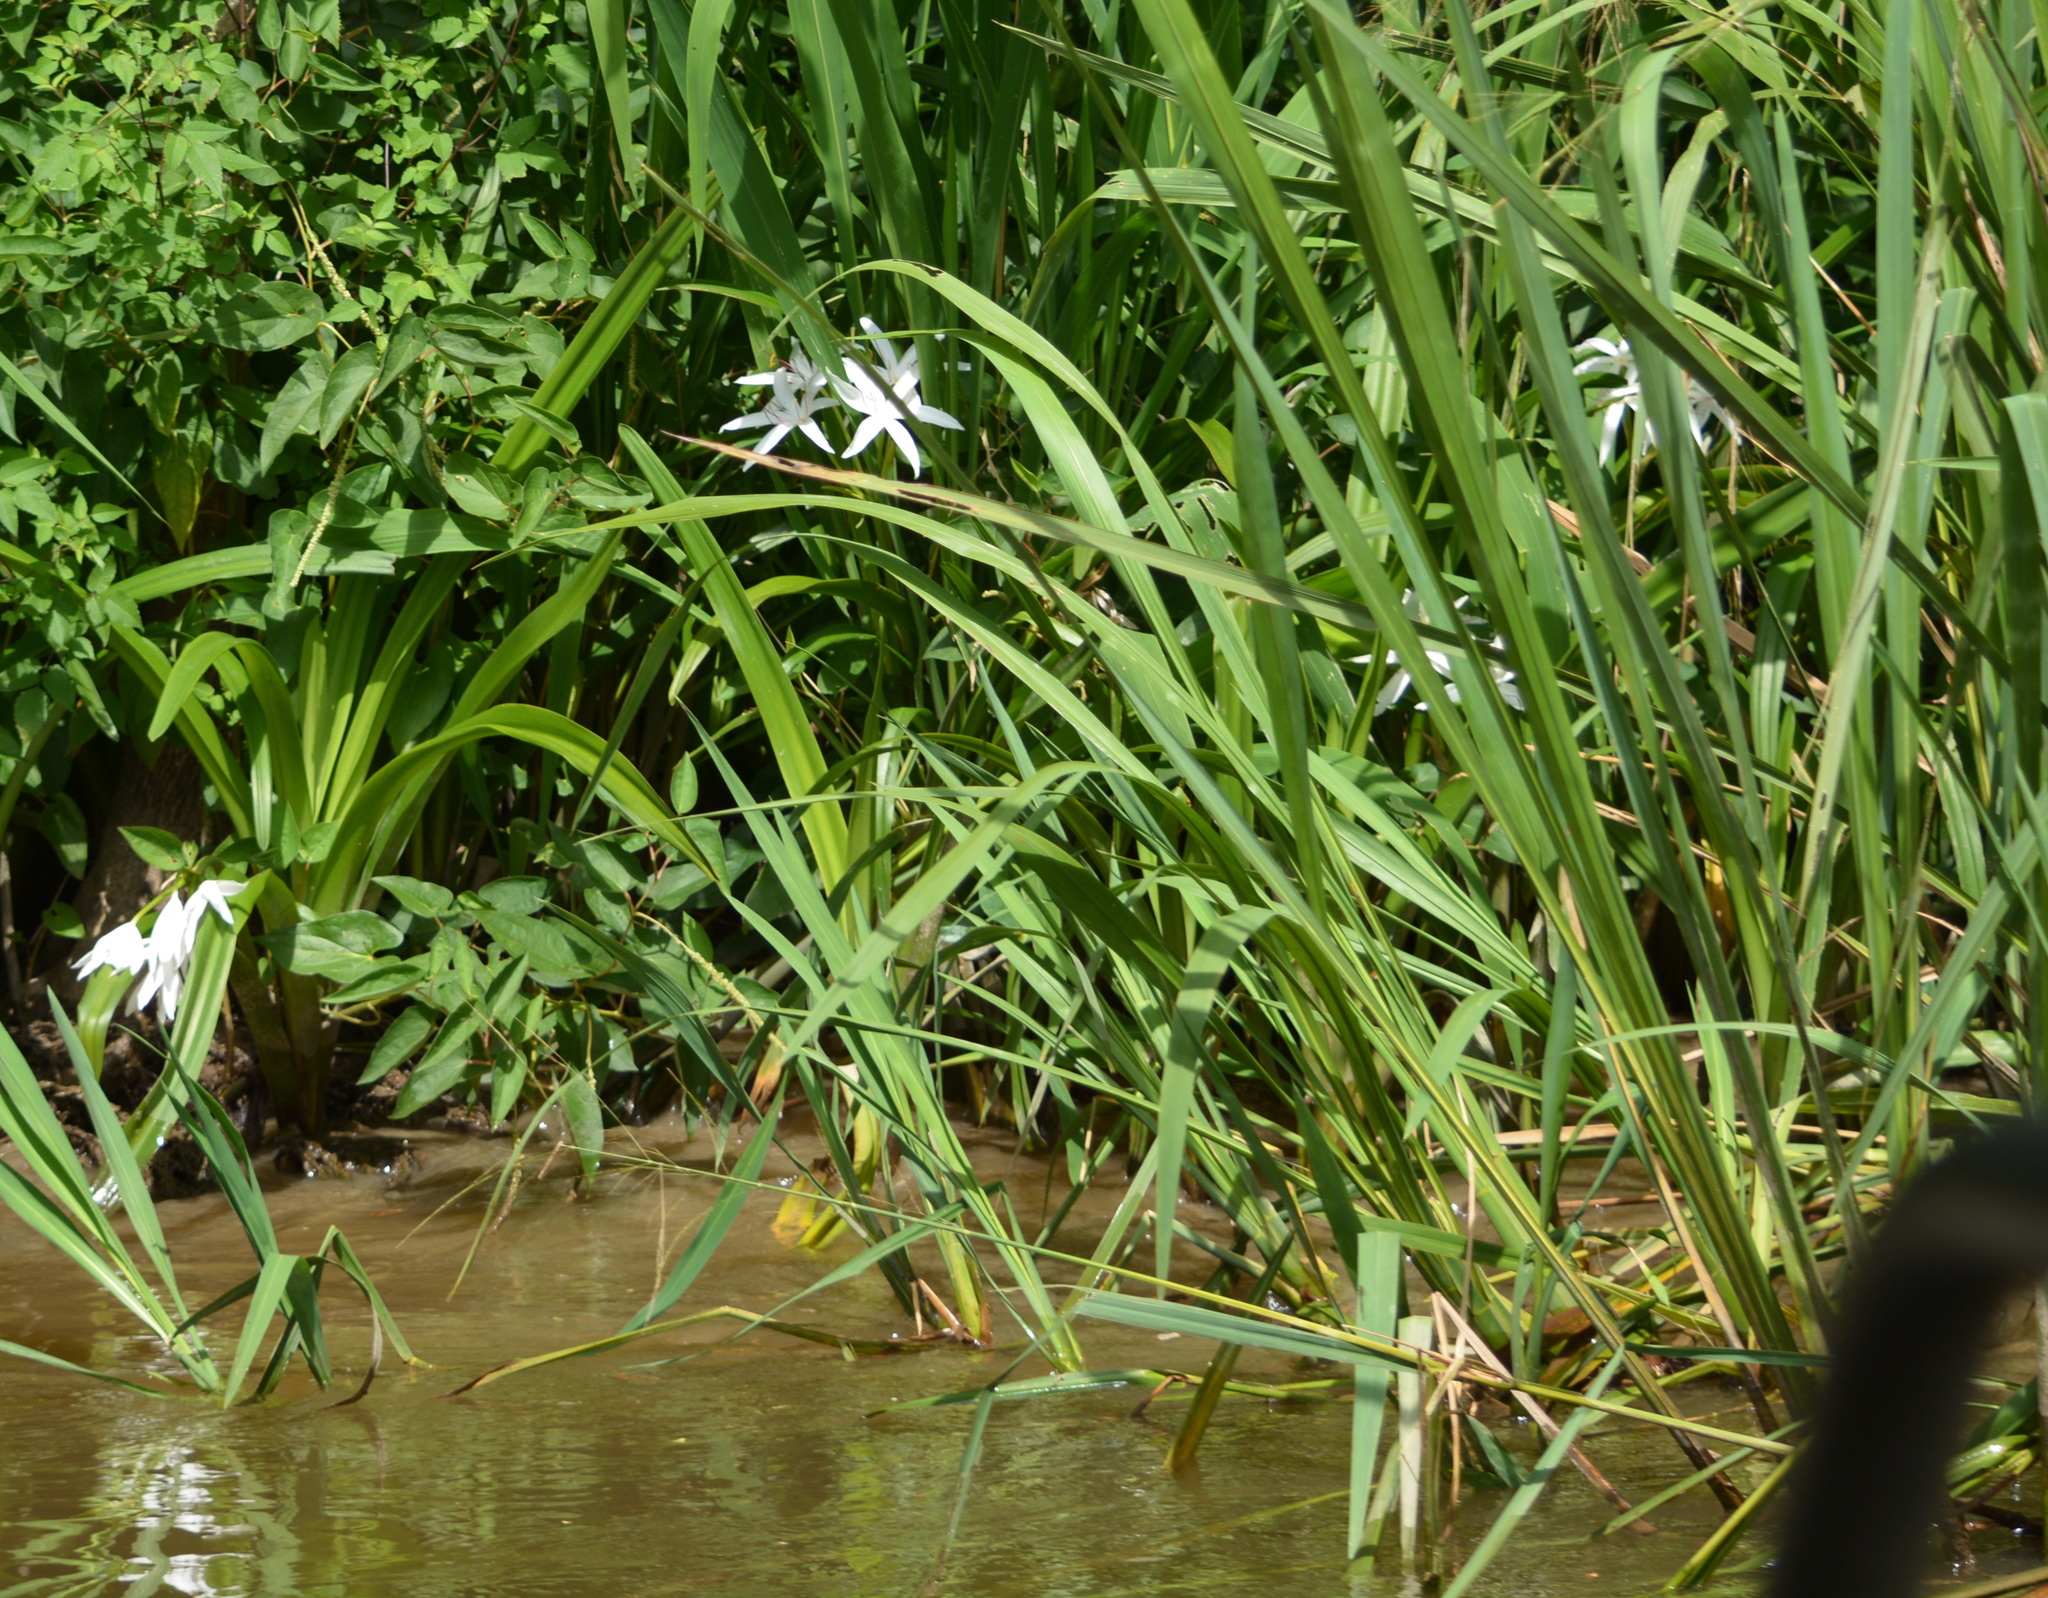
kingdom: Plantae
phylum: Tracheophyta
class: Liliopsida
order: Asparagales
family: Amaryllidaceae
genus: Crinum
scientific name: Crinum americanum
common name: Florida swamp-lily
